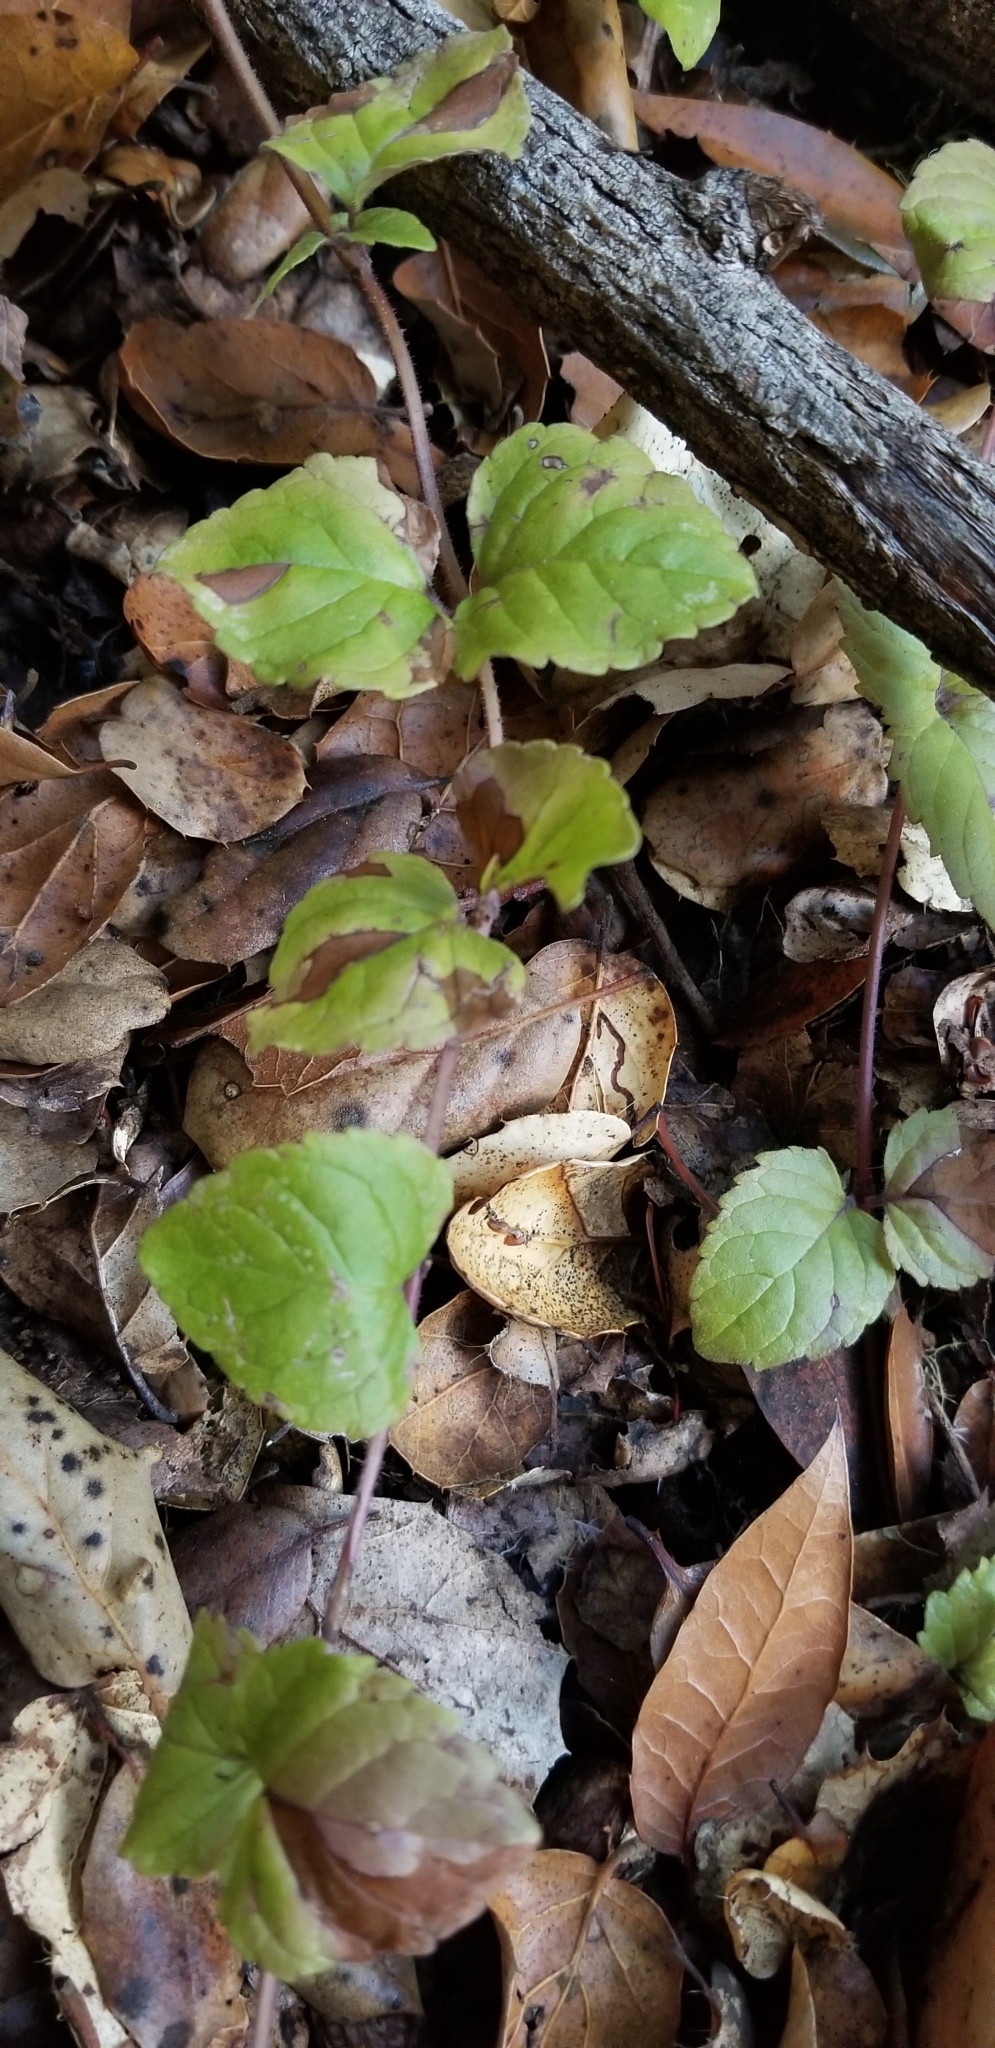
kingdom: Plantae
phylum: Tracheophyta
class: Magnoliopsida
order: Lamiales
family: Lamiaceae
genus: Micromeria
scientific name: Micromeria douglasii
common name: Yerba buena
